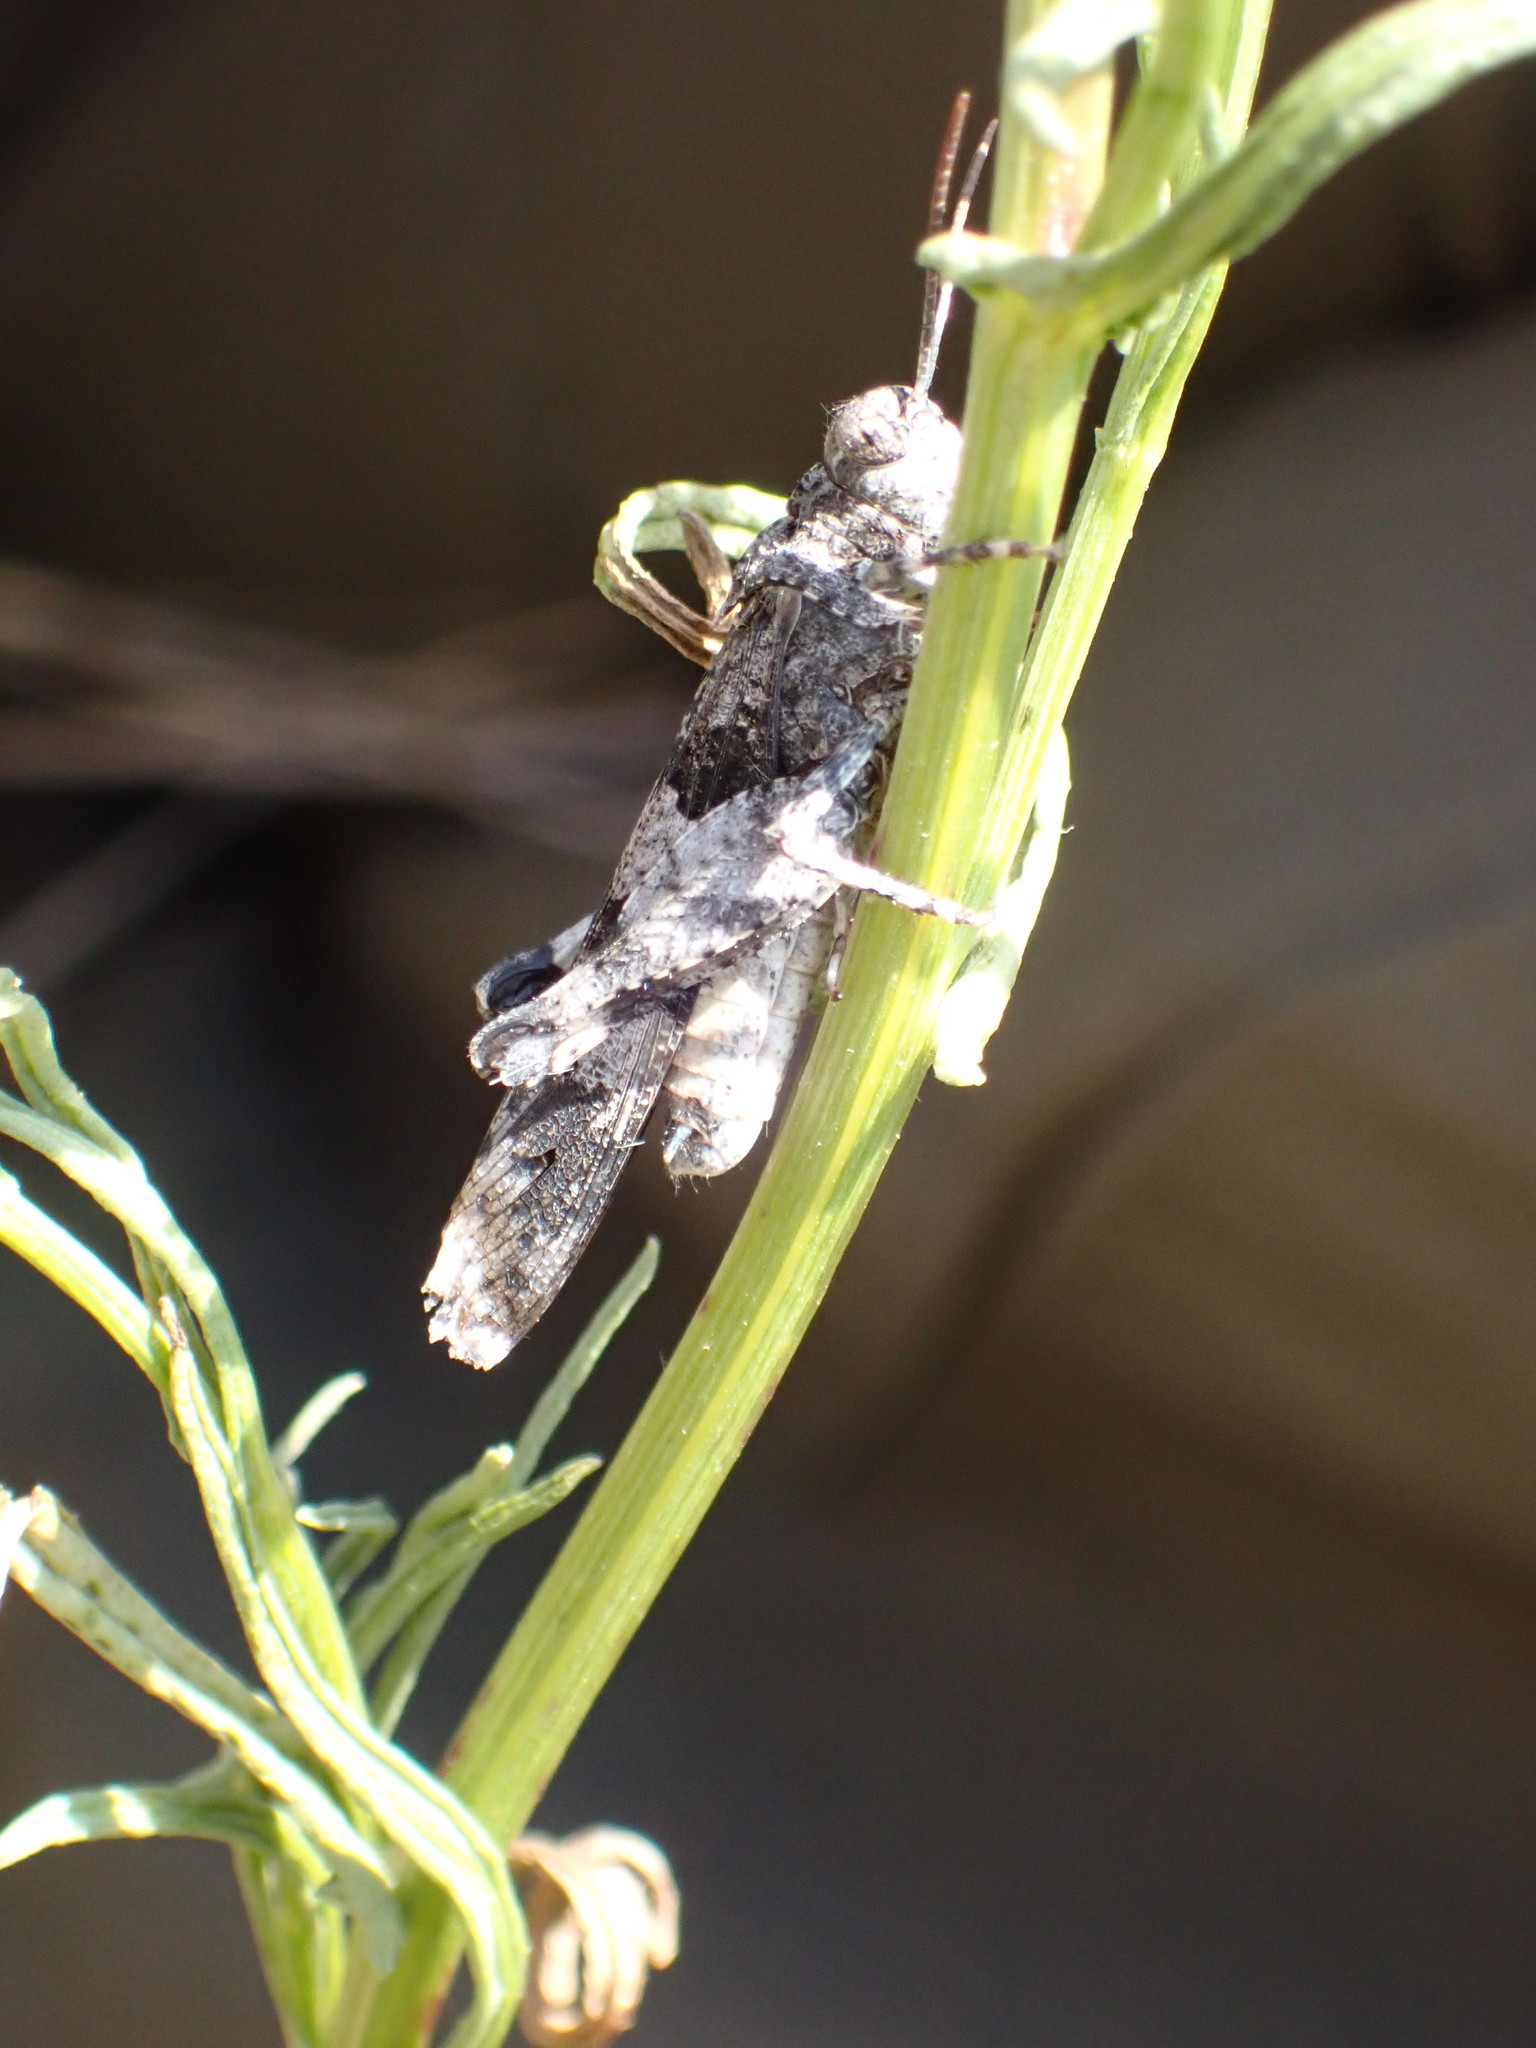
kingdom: Animalia
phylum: Arthropoda
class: Insecta
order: Orthoptera
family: Acrididae
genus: Oedipoda
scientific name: Oedipoda caerulescens
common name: Blue-winged grasshopper
